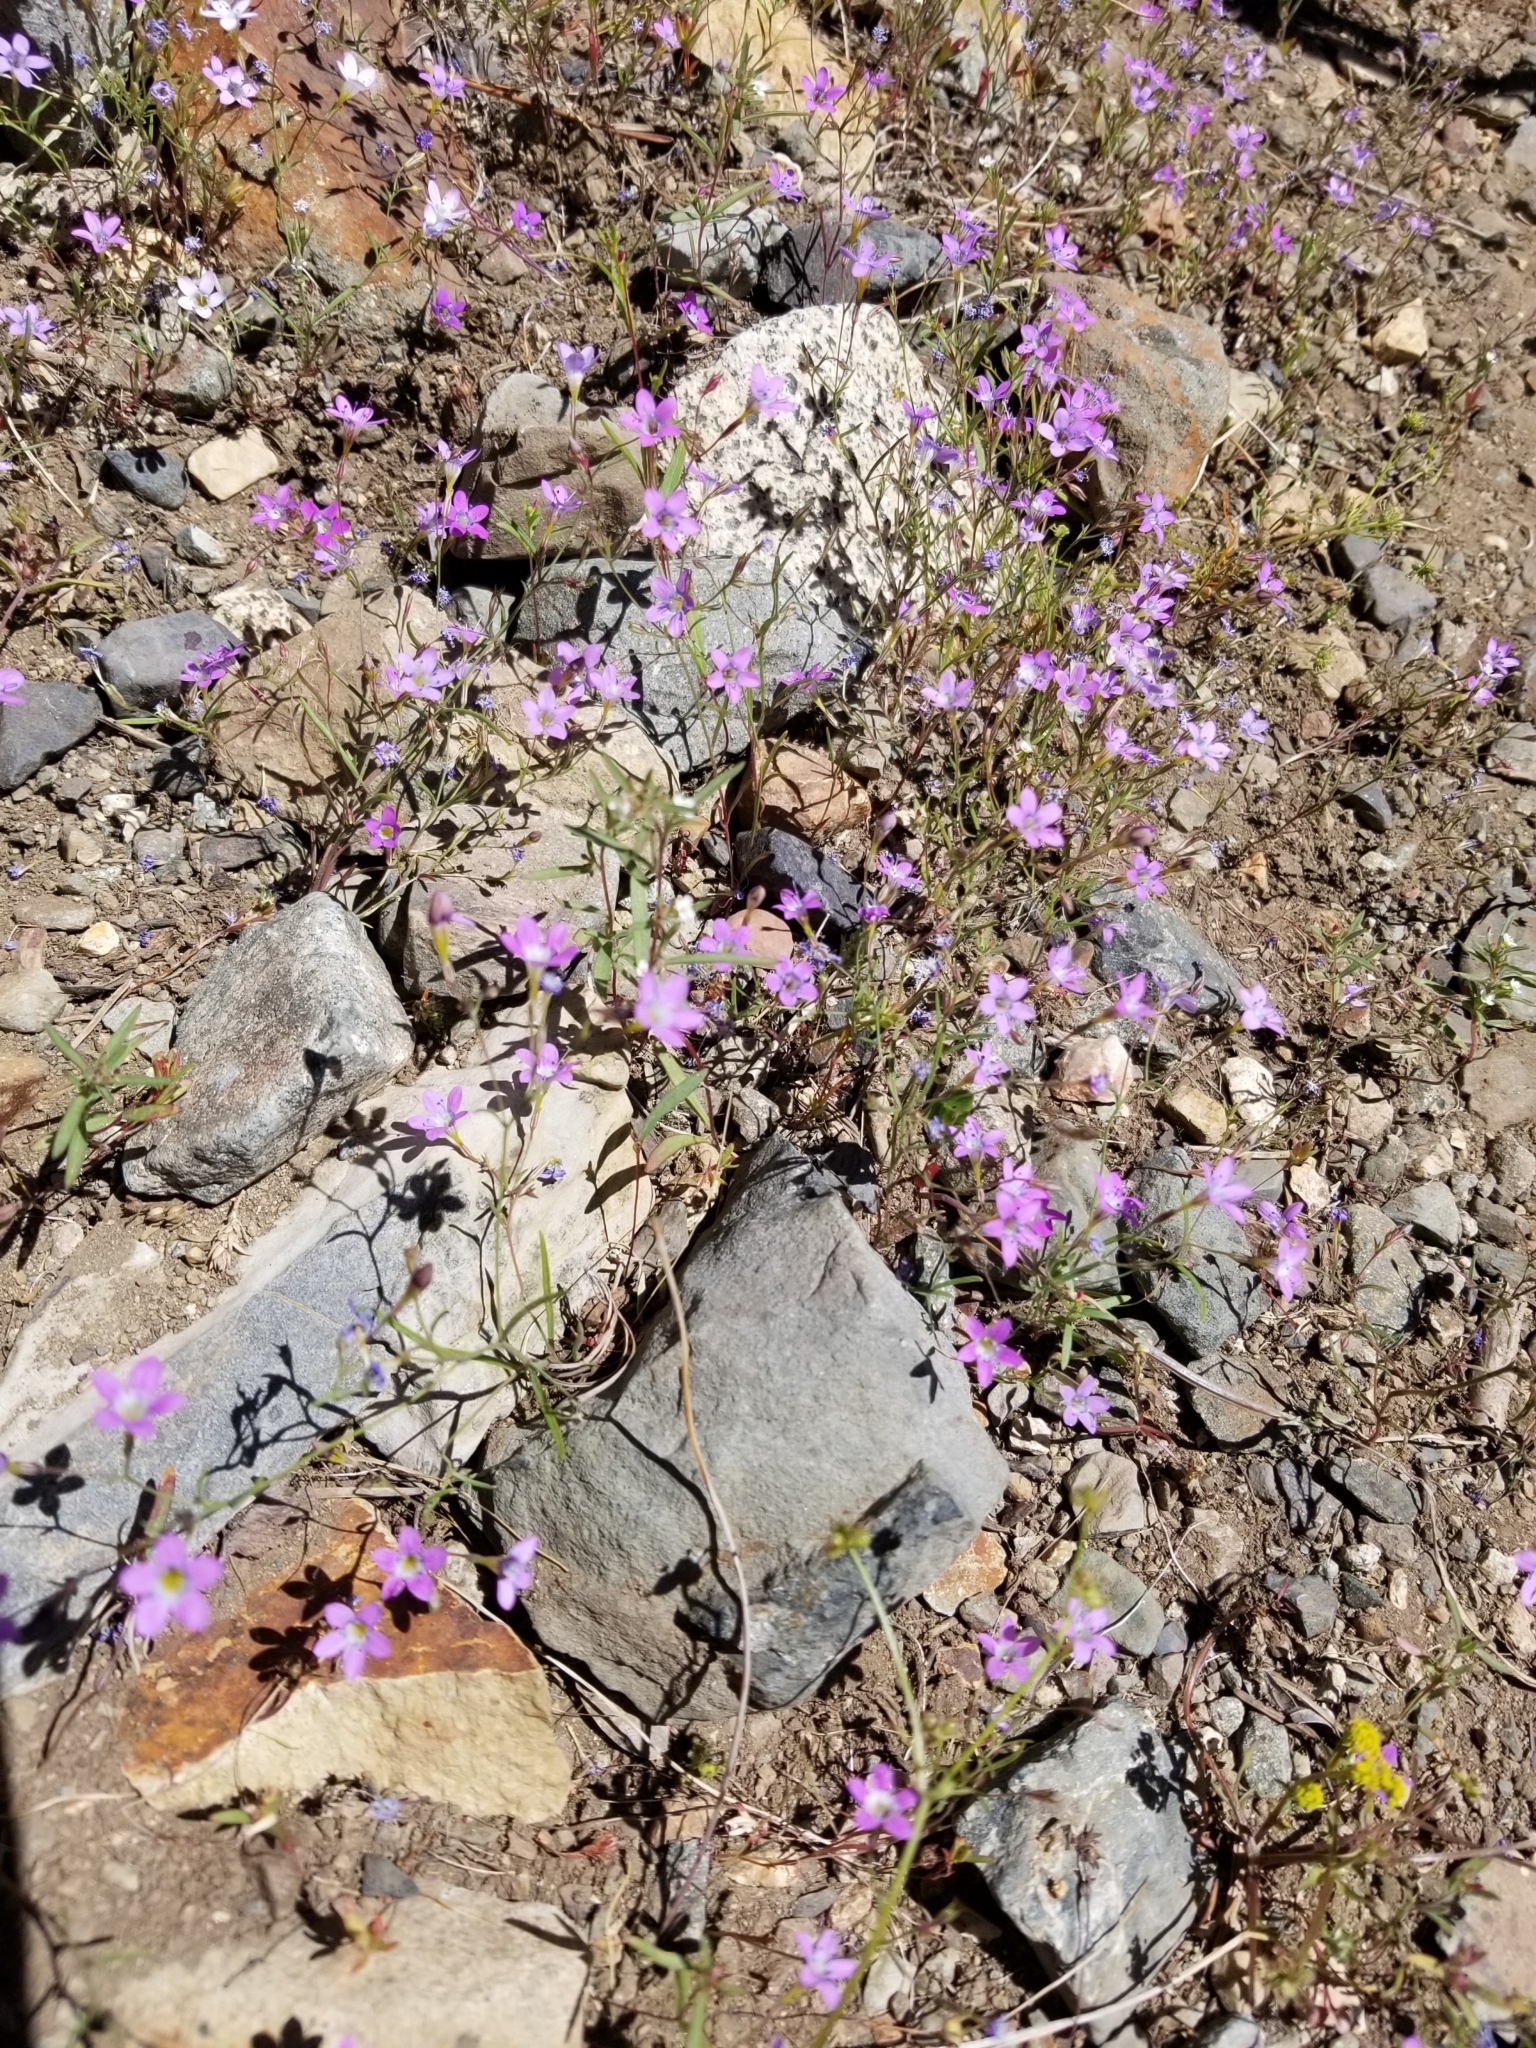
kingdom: Plantae
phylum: Tracheophyta
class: Magnoliopsida
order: Ericales
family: Polemoniaceae
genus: Navarretia
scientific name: Navarretia leptalea
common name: Bridges' pincushionplant
